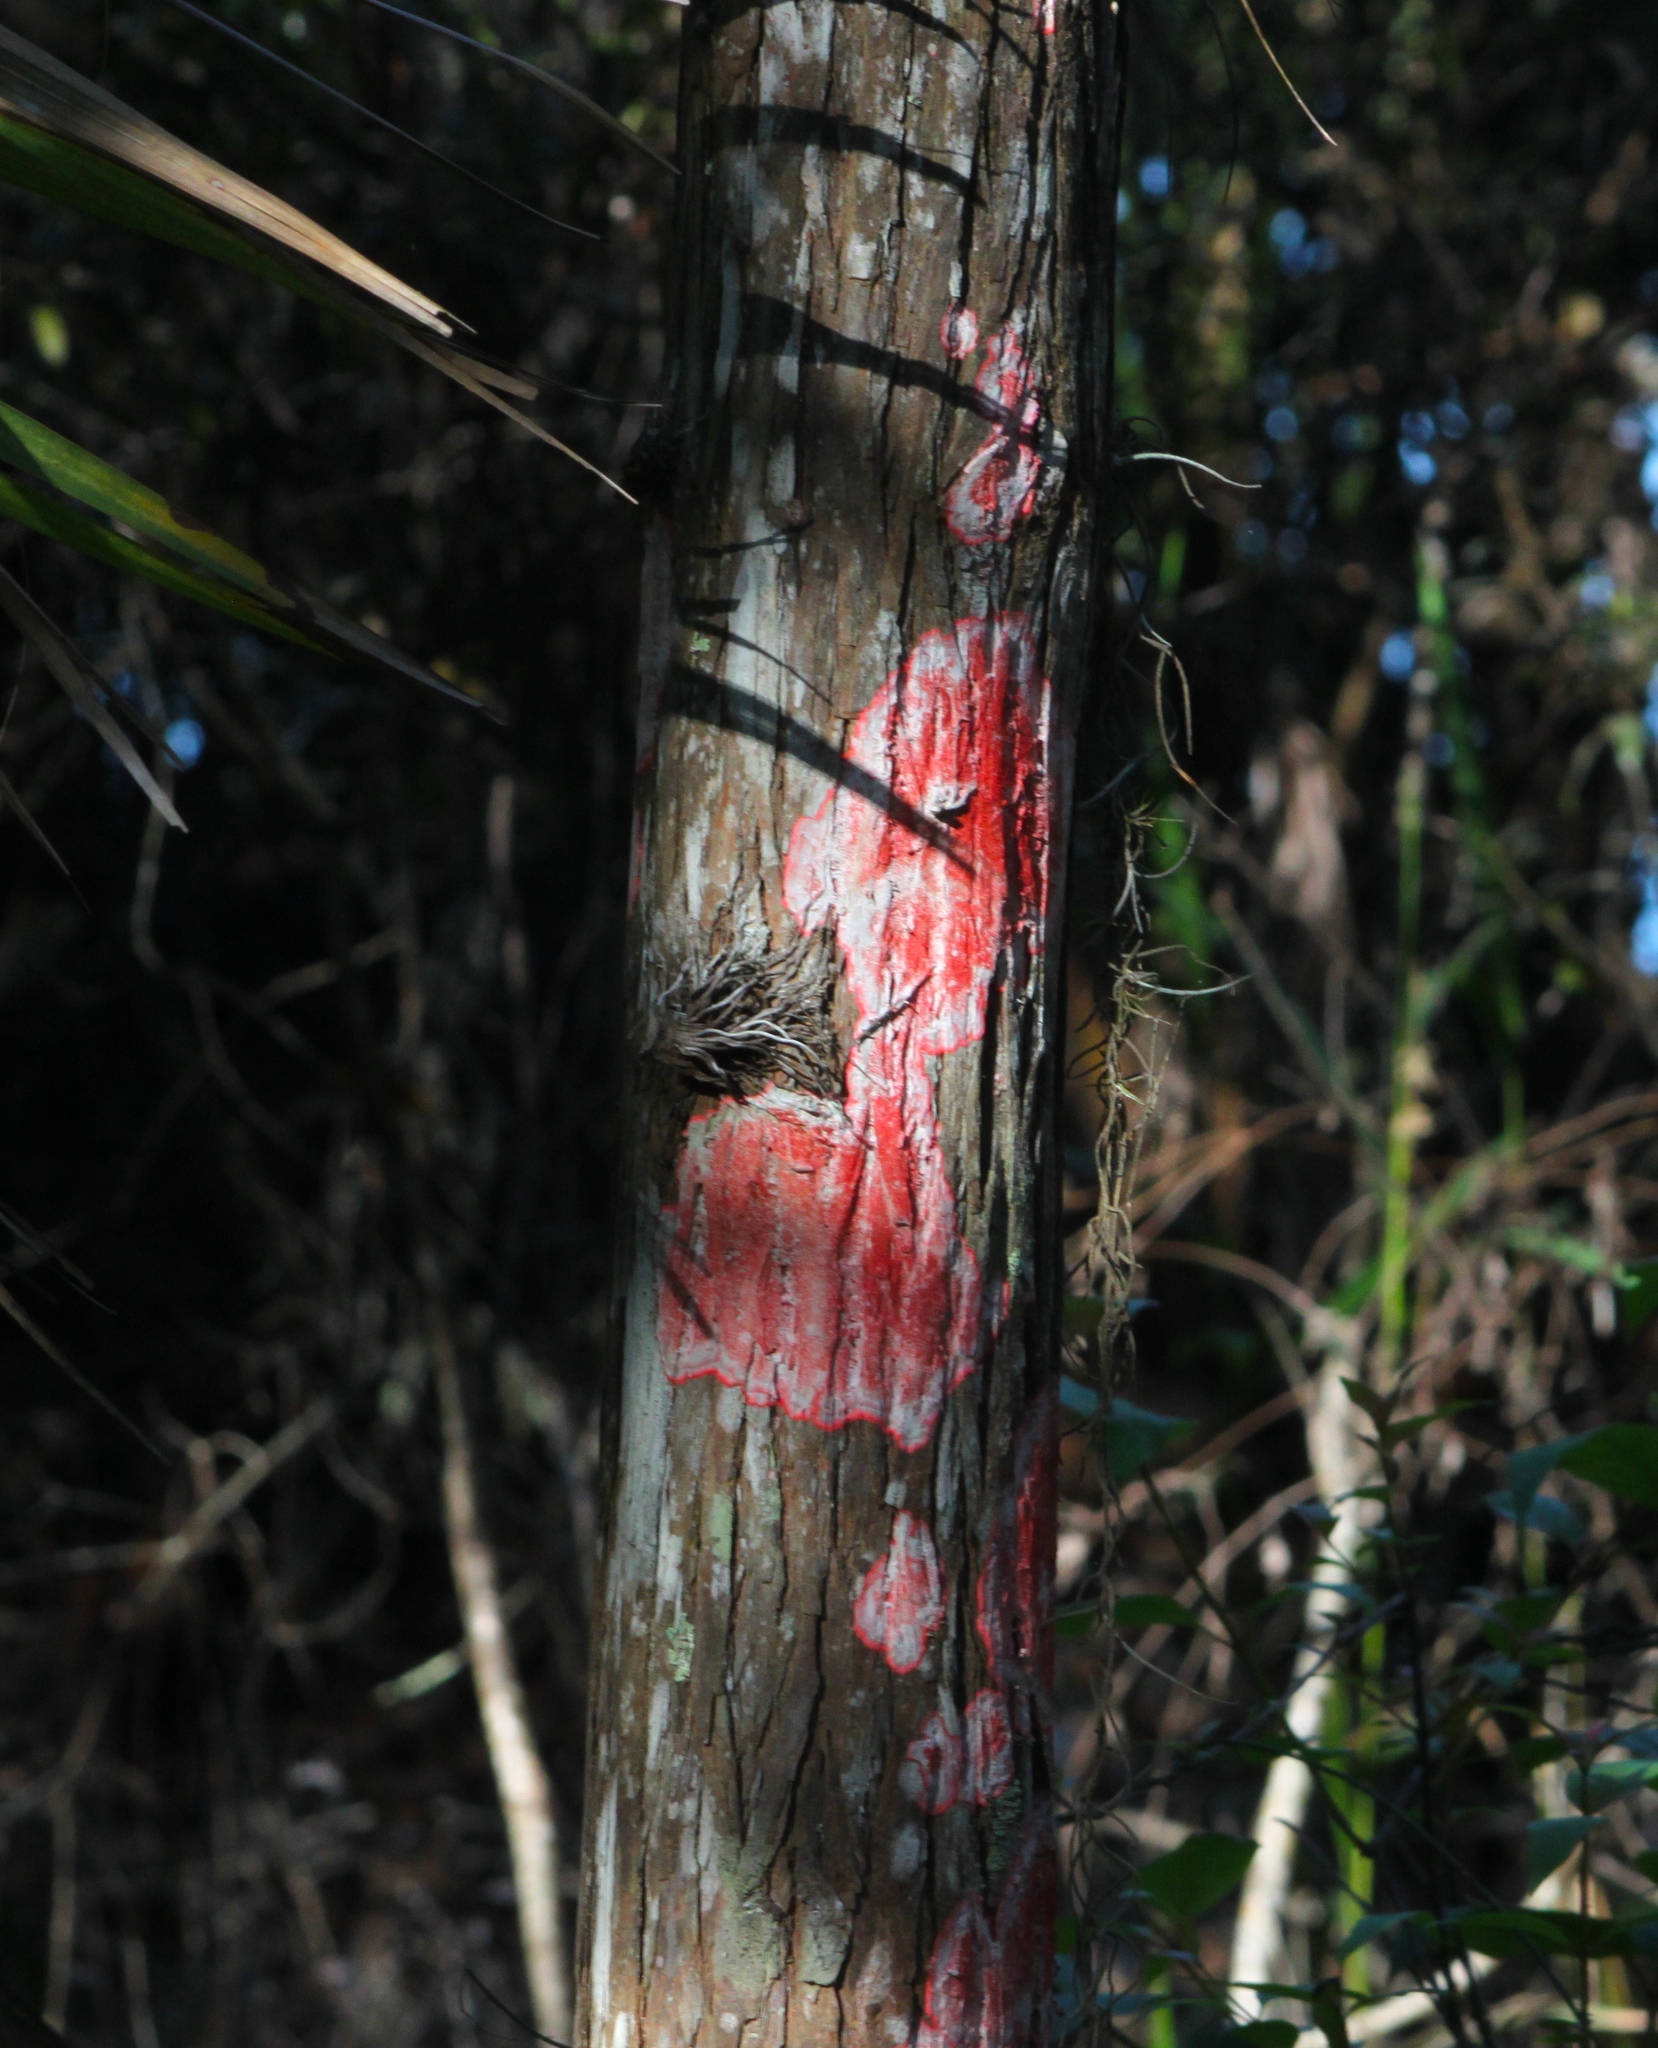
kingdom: Fungi
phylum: Ascomycota
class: Arthoniomycetes
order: Arthoniales
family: Arthoniaceae
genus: Herpothallon
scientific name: Herpothallon rubrocinctum
